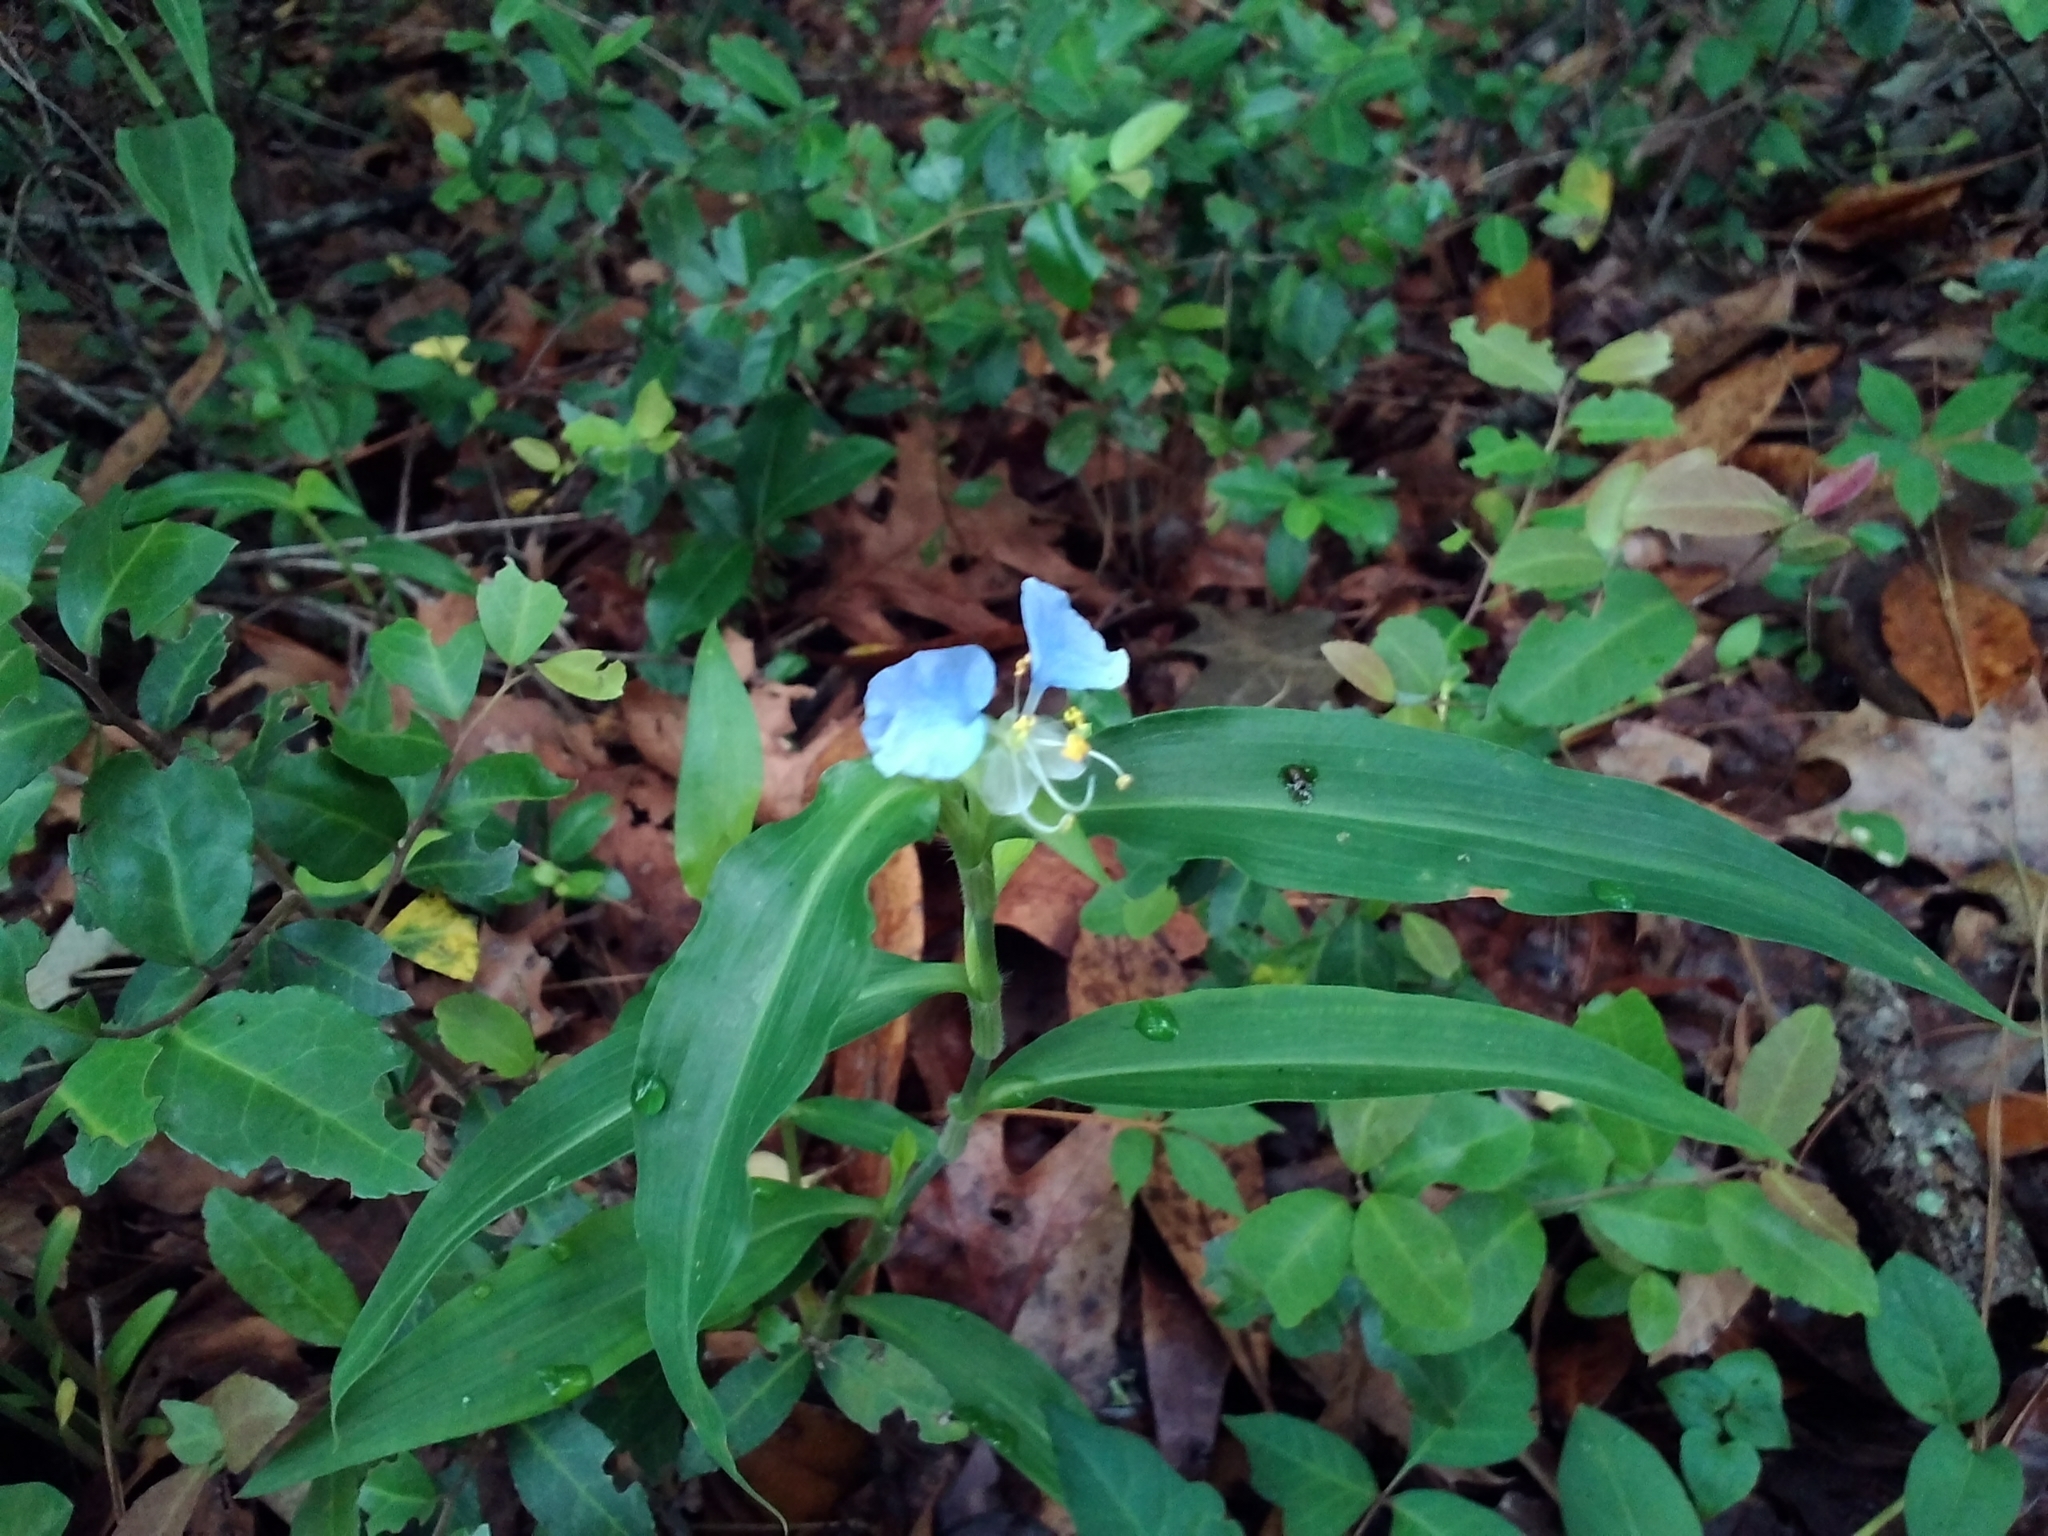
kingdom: Plantae
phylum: Tracheophyta
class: Liliopsida
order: Commelinales
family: Commelinaceae
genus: Commelina
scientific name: Commelina erecta
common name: Blousel blommetjie
